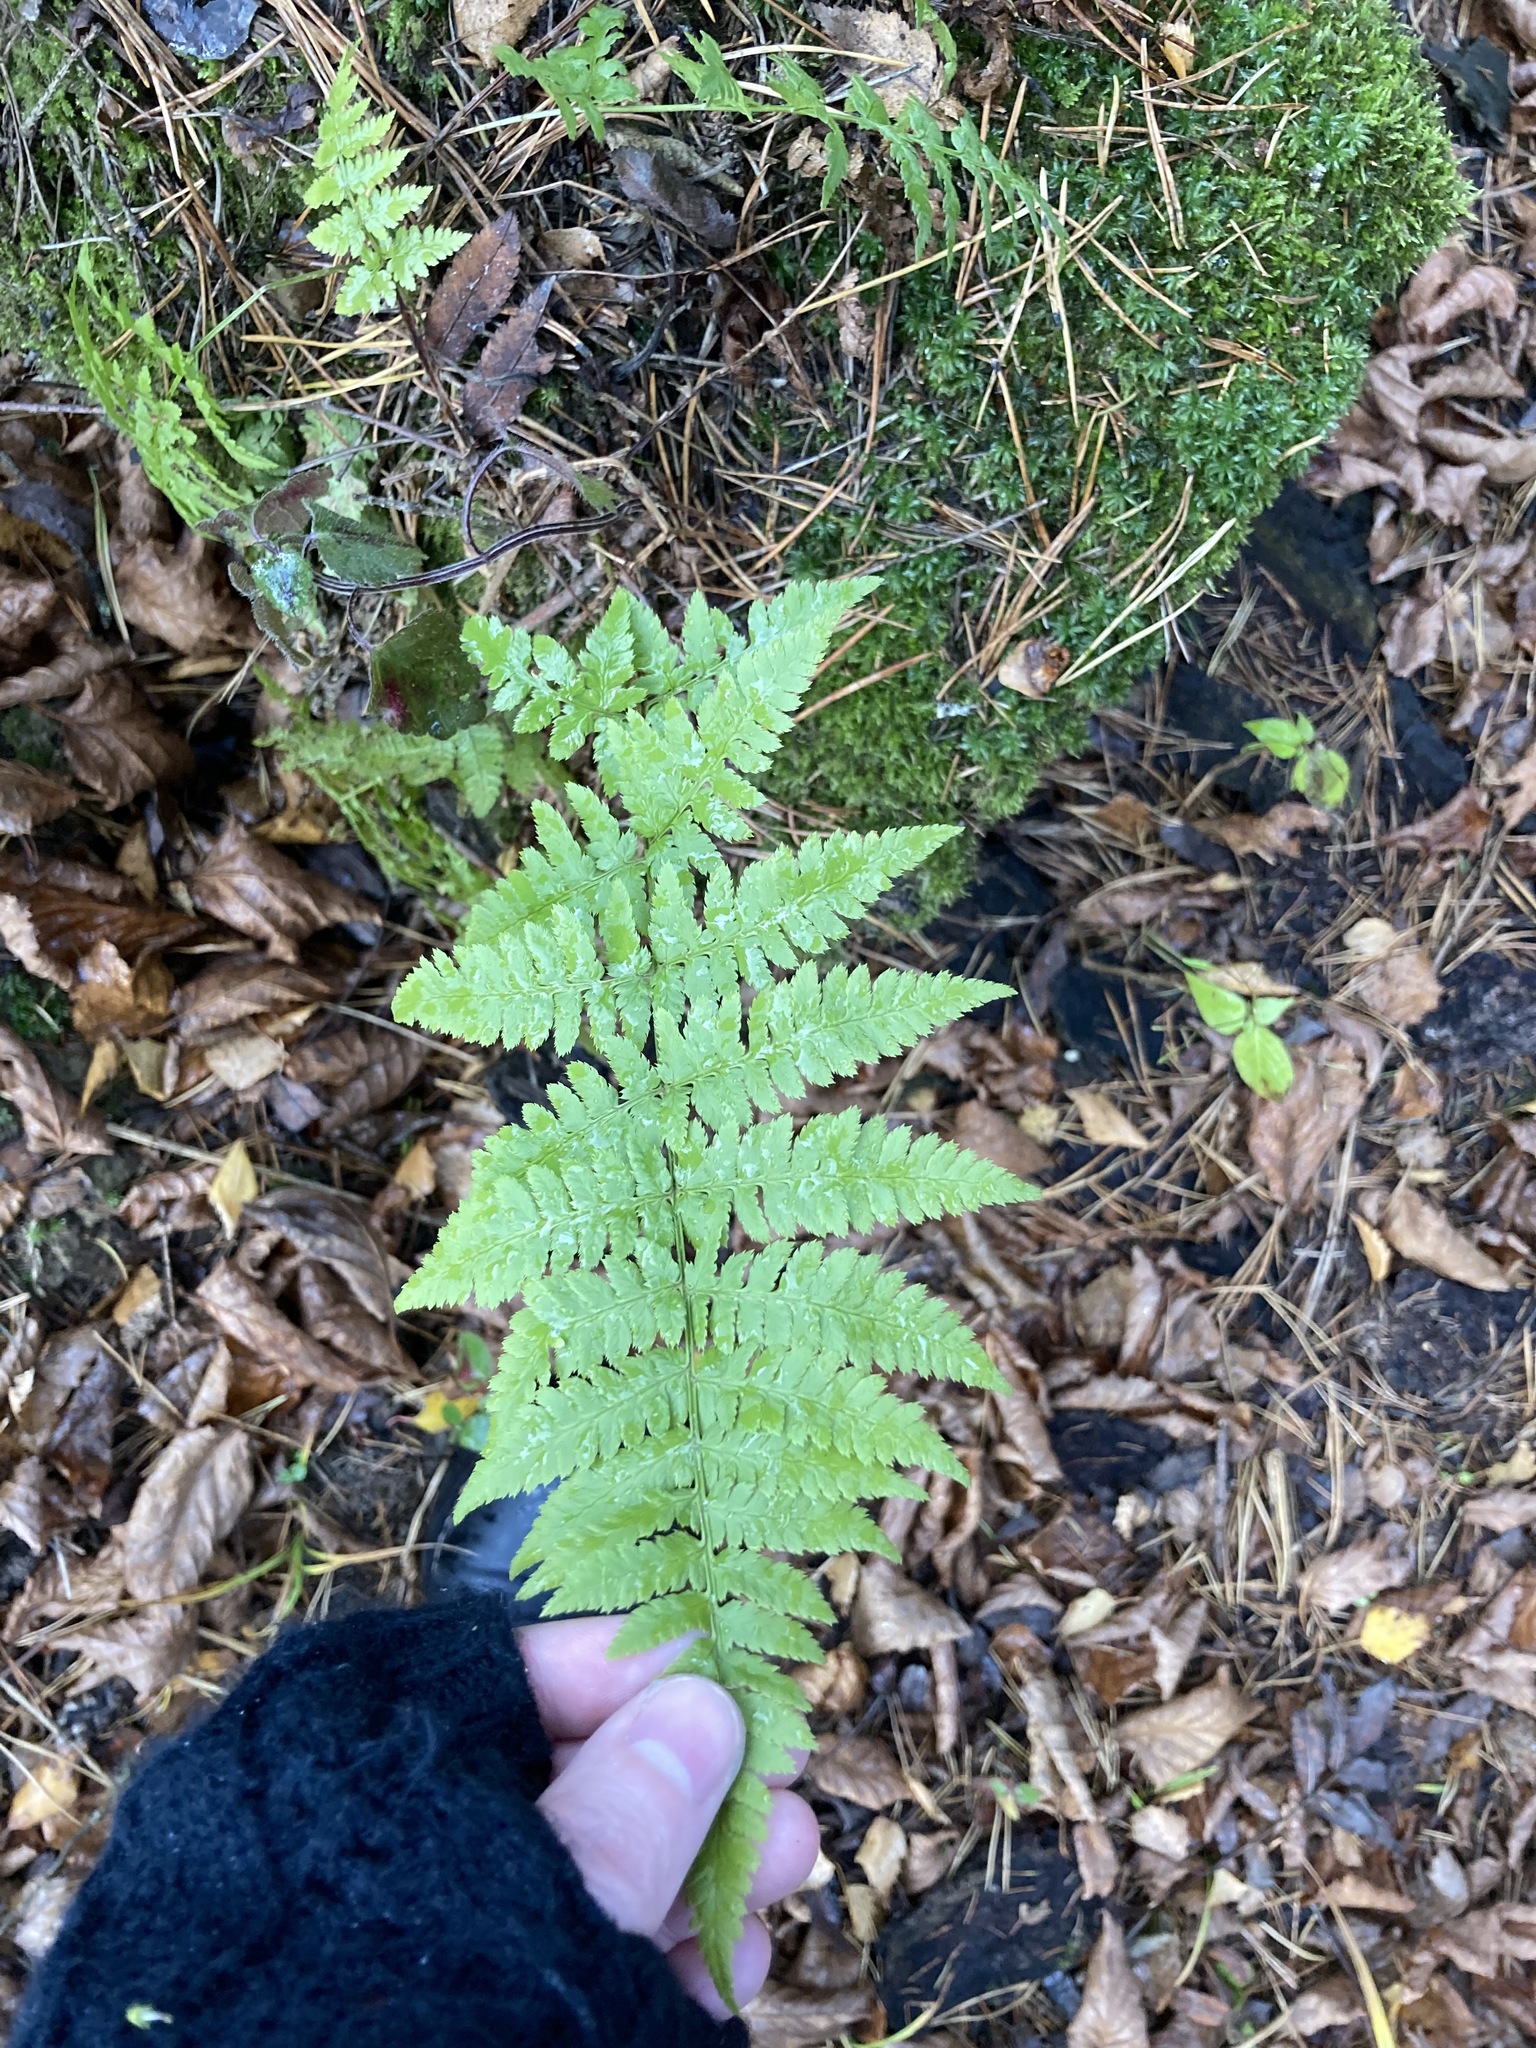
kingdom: Plantae
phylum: Tracheophyta
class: Polypodiopsida
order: Polypodiales
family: Dryopteridaceae
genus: Dryopteris
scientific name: Dryopteris carthusiana
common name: Narrow buckler-fern
